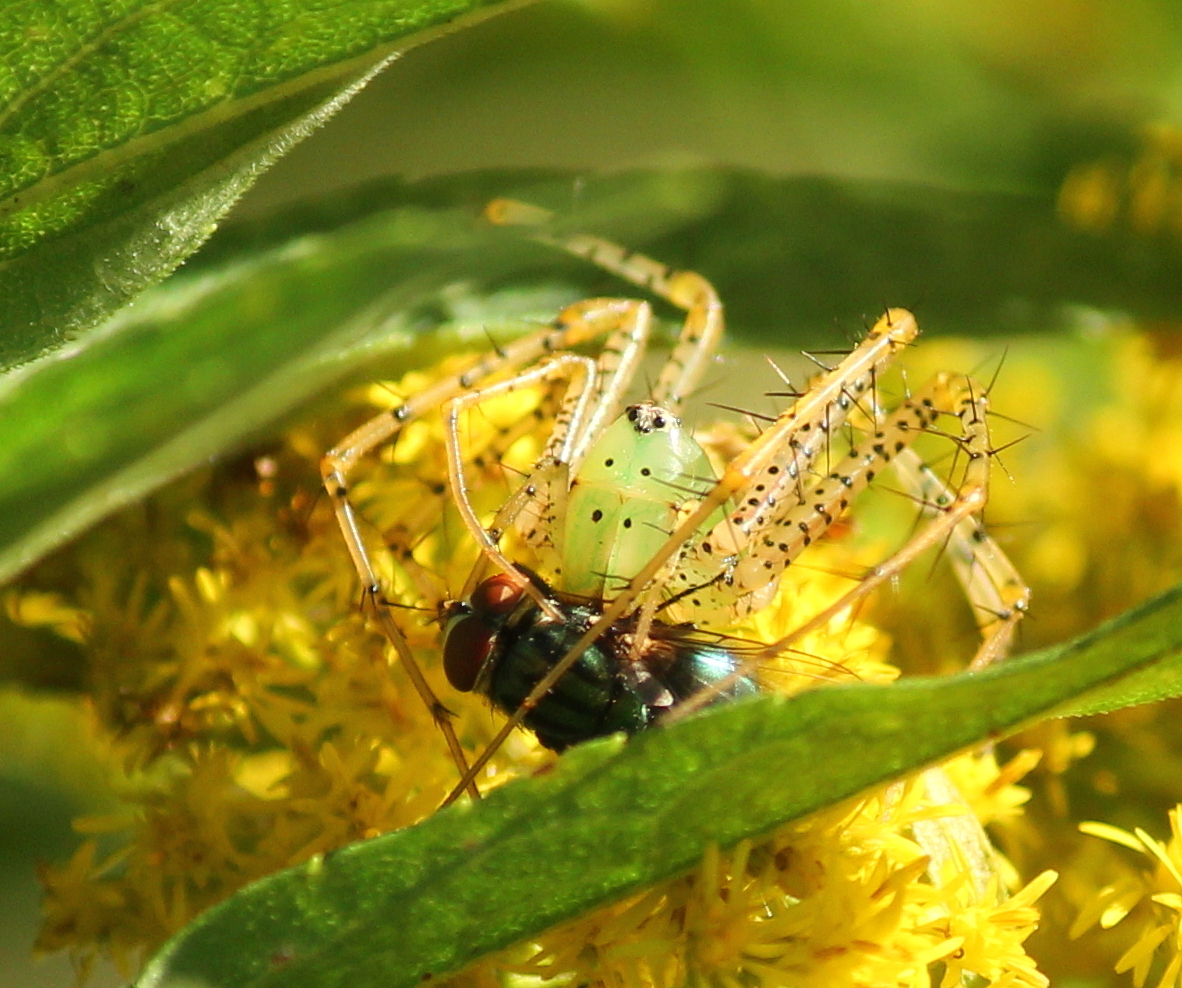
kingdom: Animalia
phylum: Arthropoda
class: Arachnida
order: Araneae
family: Oxyopidae
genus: Peucetia
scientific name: Peucetia viridans
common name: Lynx spiders
